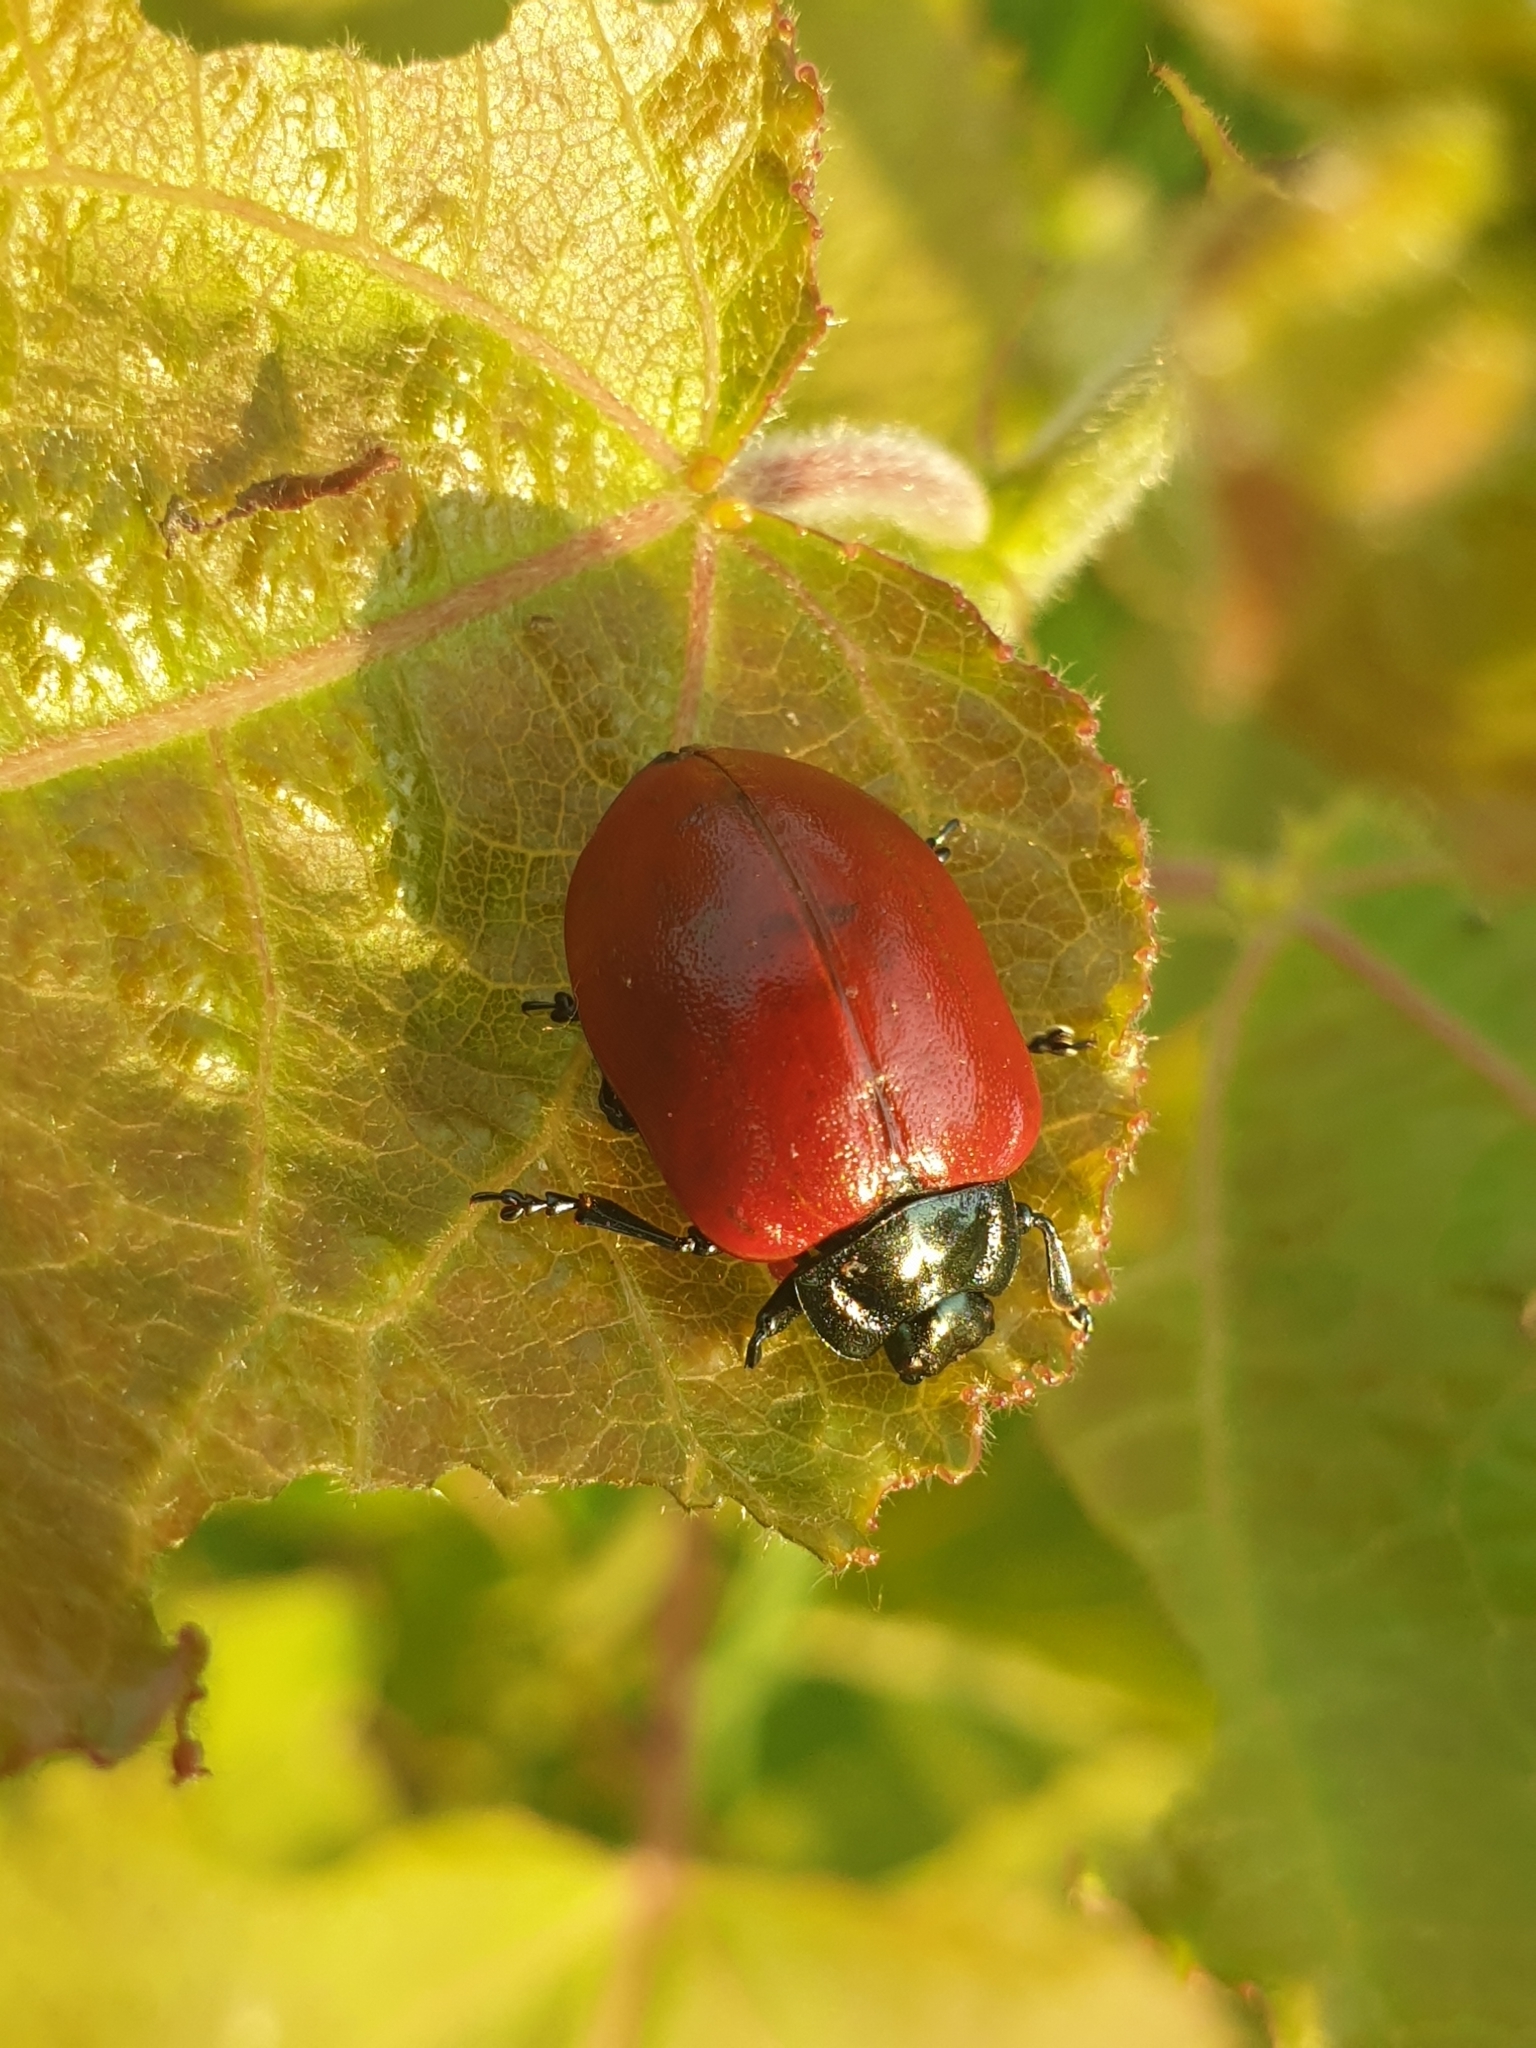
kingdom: Animalia
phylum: Arthropoda
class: Insecta
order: Coleoptera
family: Chrysomelidae
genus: Chrysomela
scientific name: Chrysomela populi
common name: Red poplar leaf beetle
